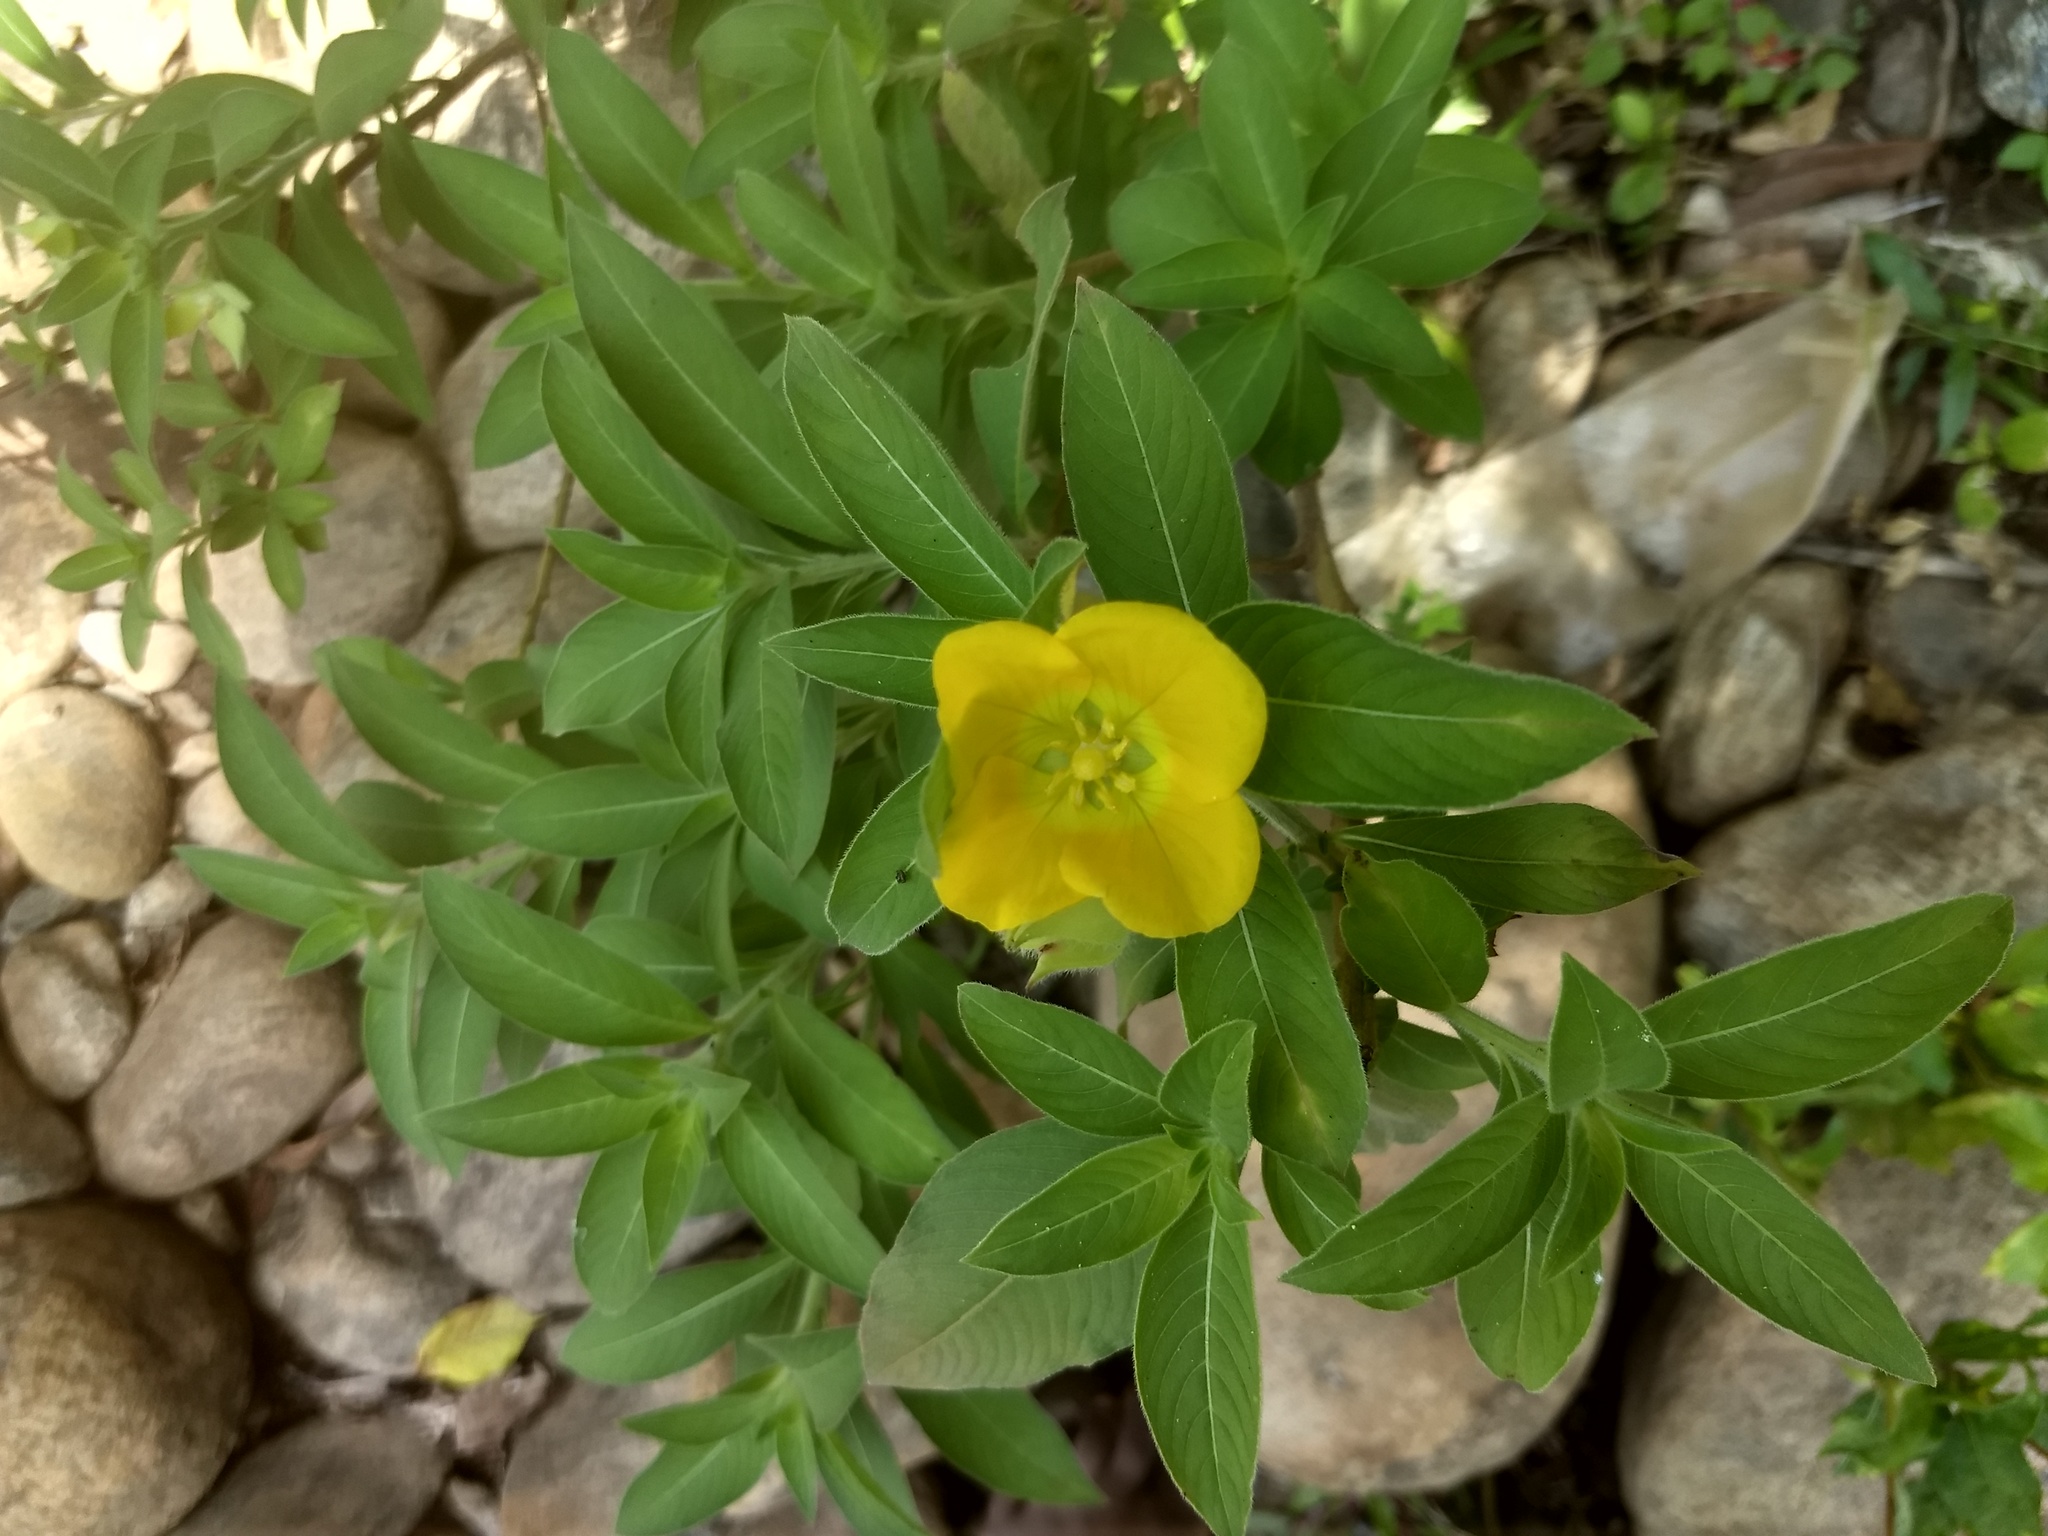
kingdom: Plantae
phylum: Tracheophyta
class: Magnoliopsida
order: Myrtales
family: Onagraceae
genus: Ludwigia
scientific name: Ludwigia peruviana
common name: Peruvian primrose-willow
